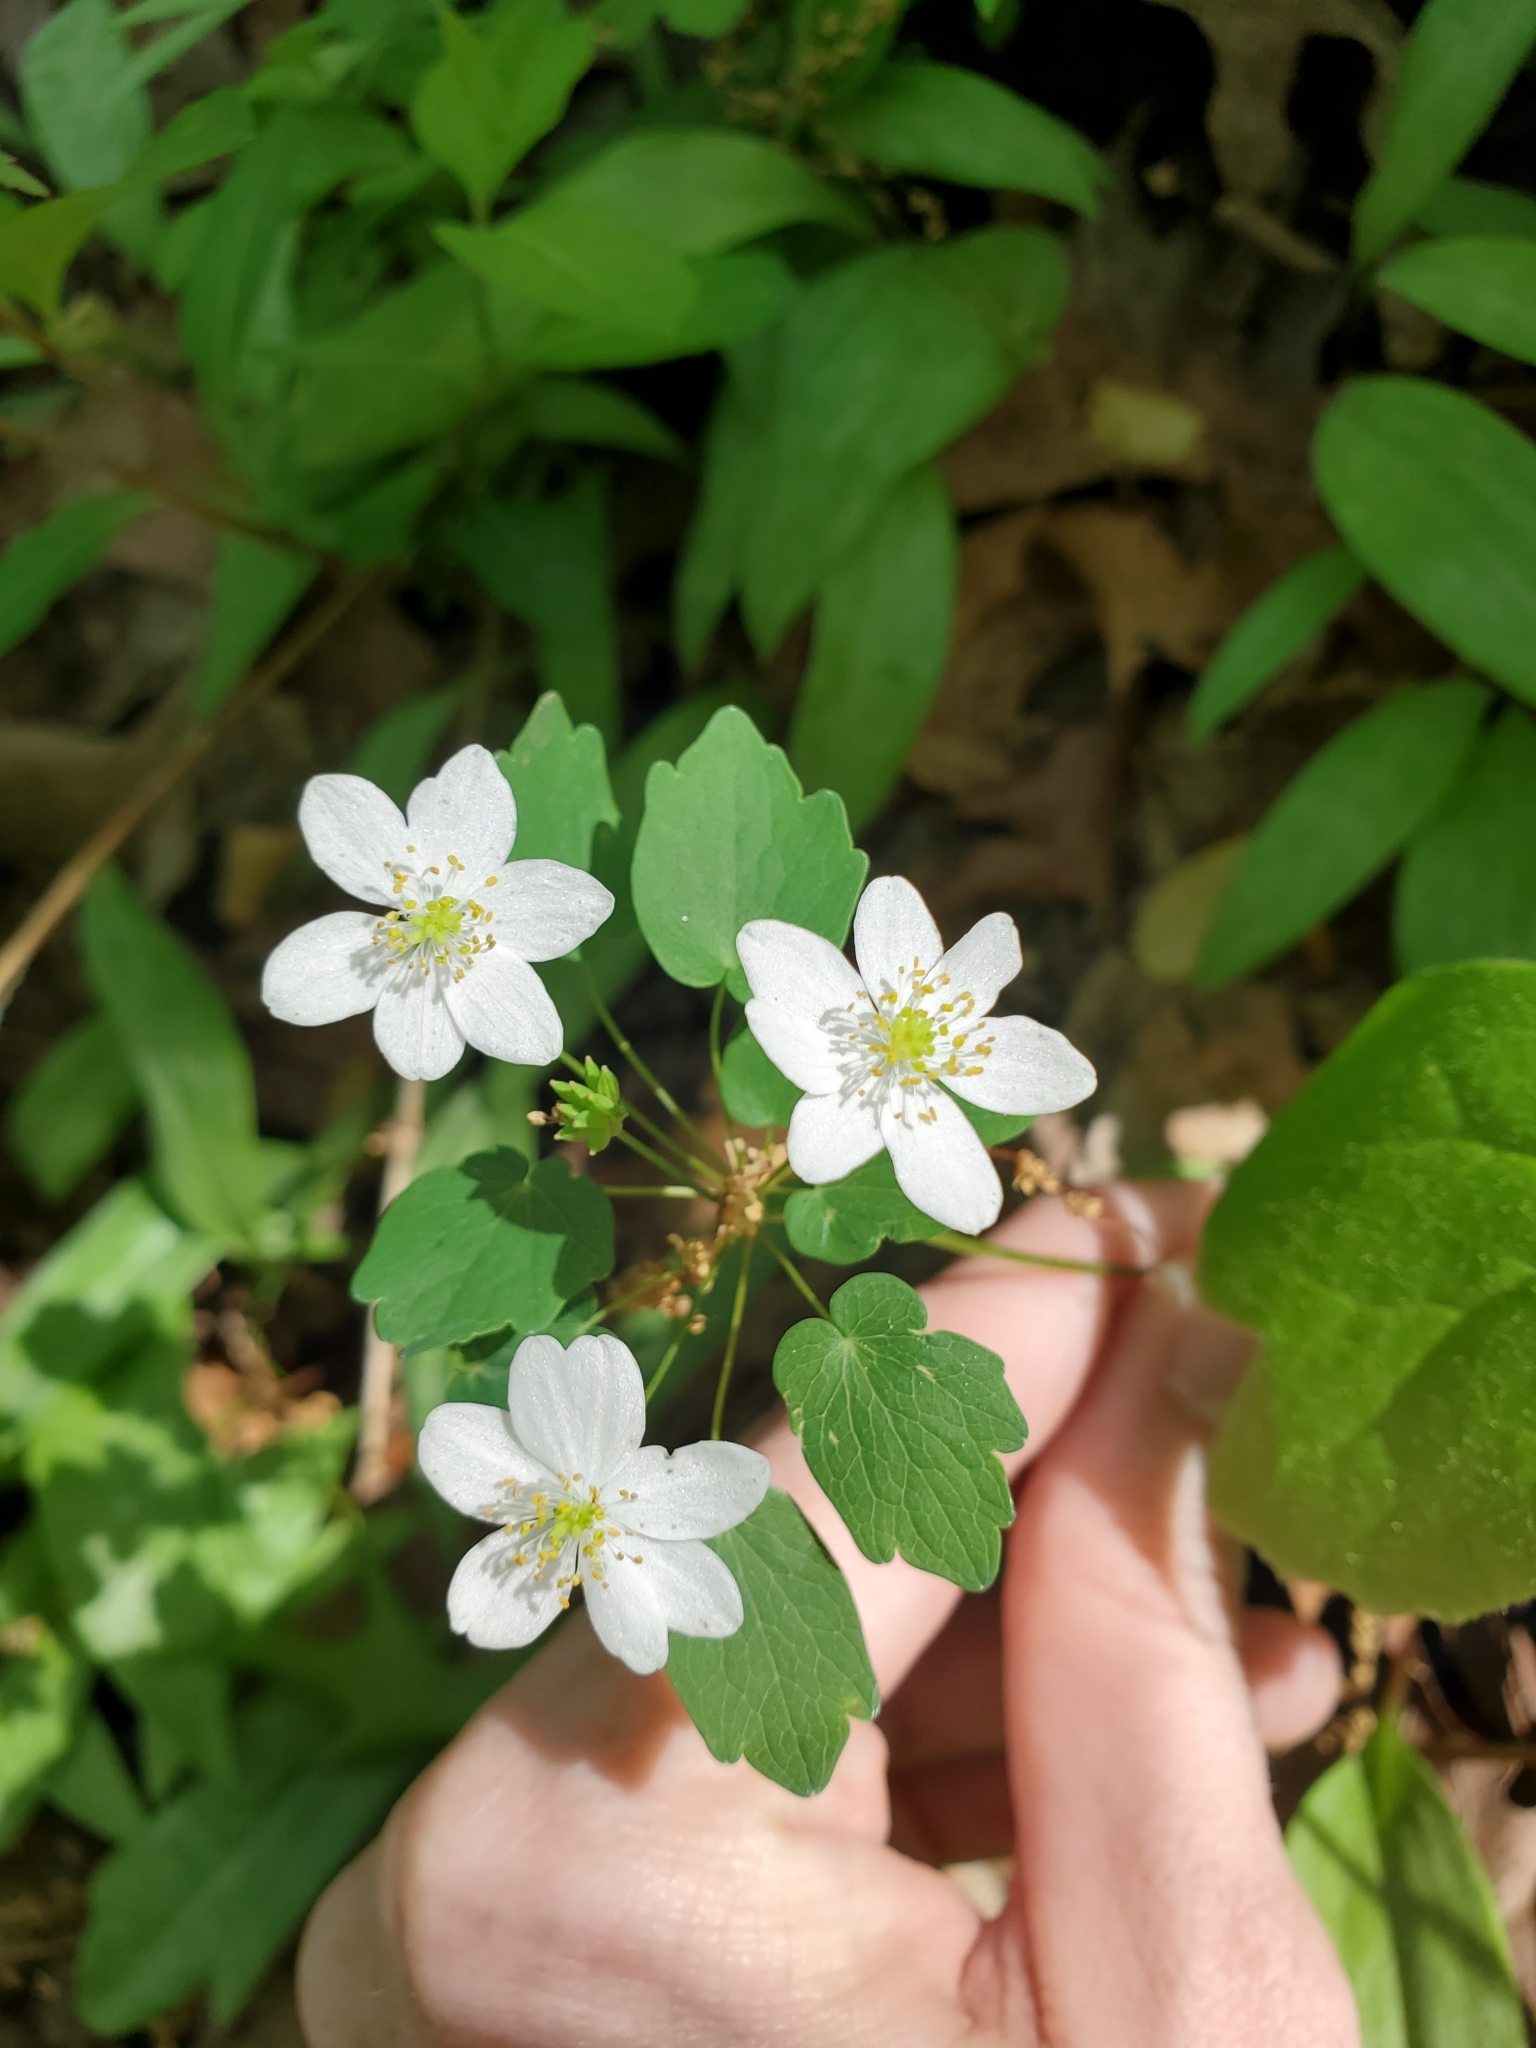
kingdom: Plantae
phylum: Tracheophyta
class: Magnoliopsida
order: Ranunculales
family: Ranunculaceae
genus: Thalictrum
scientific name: Thalictrum thalictroides
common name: Rue-anemone
